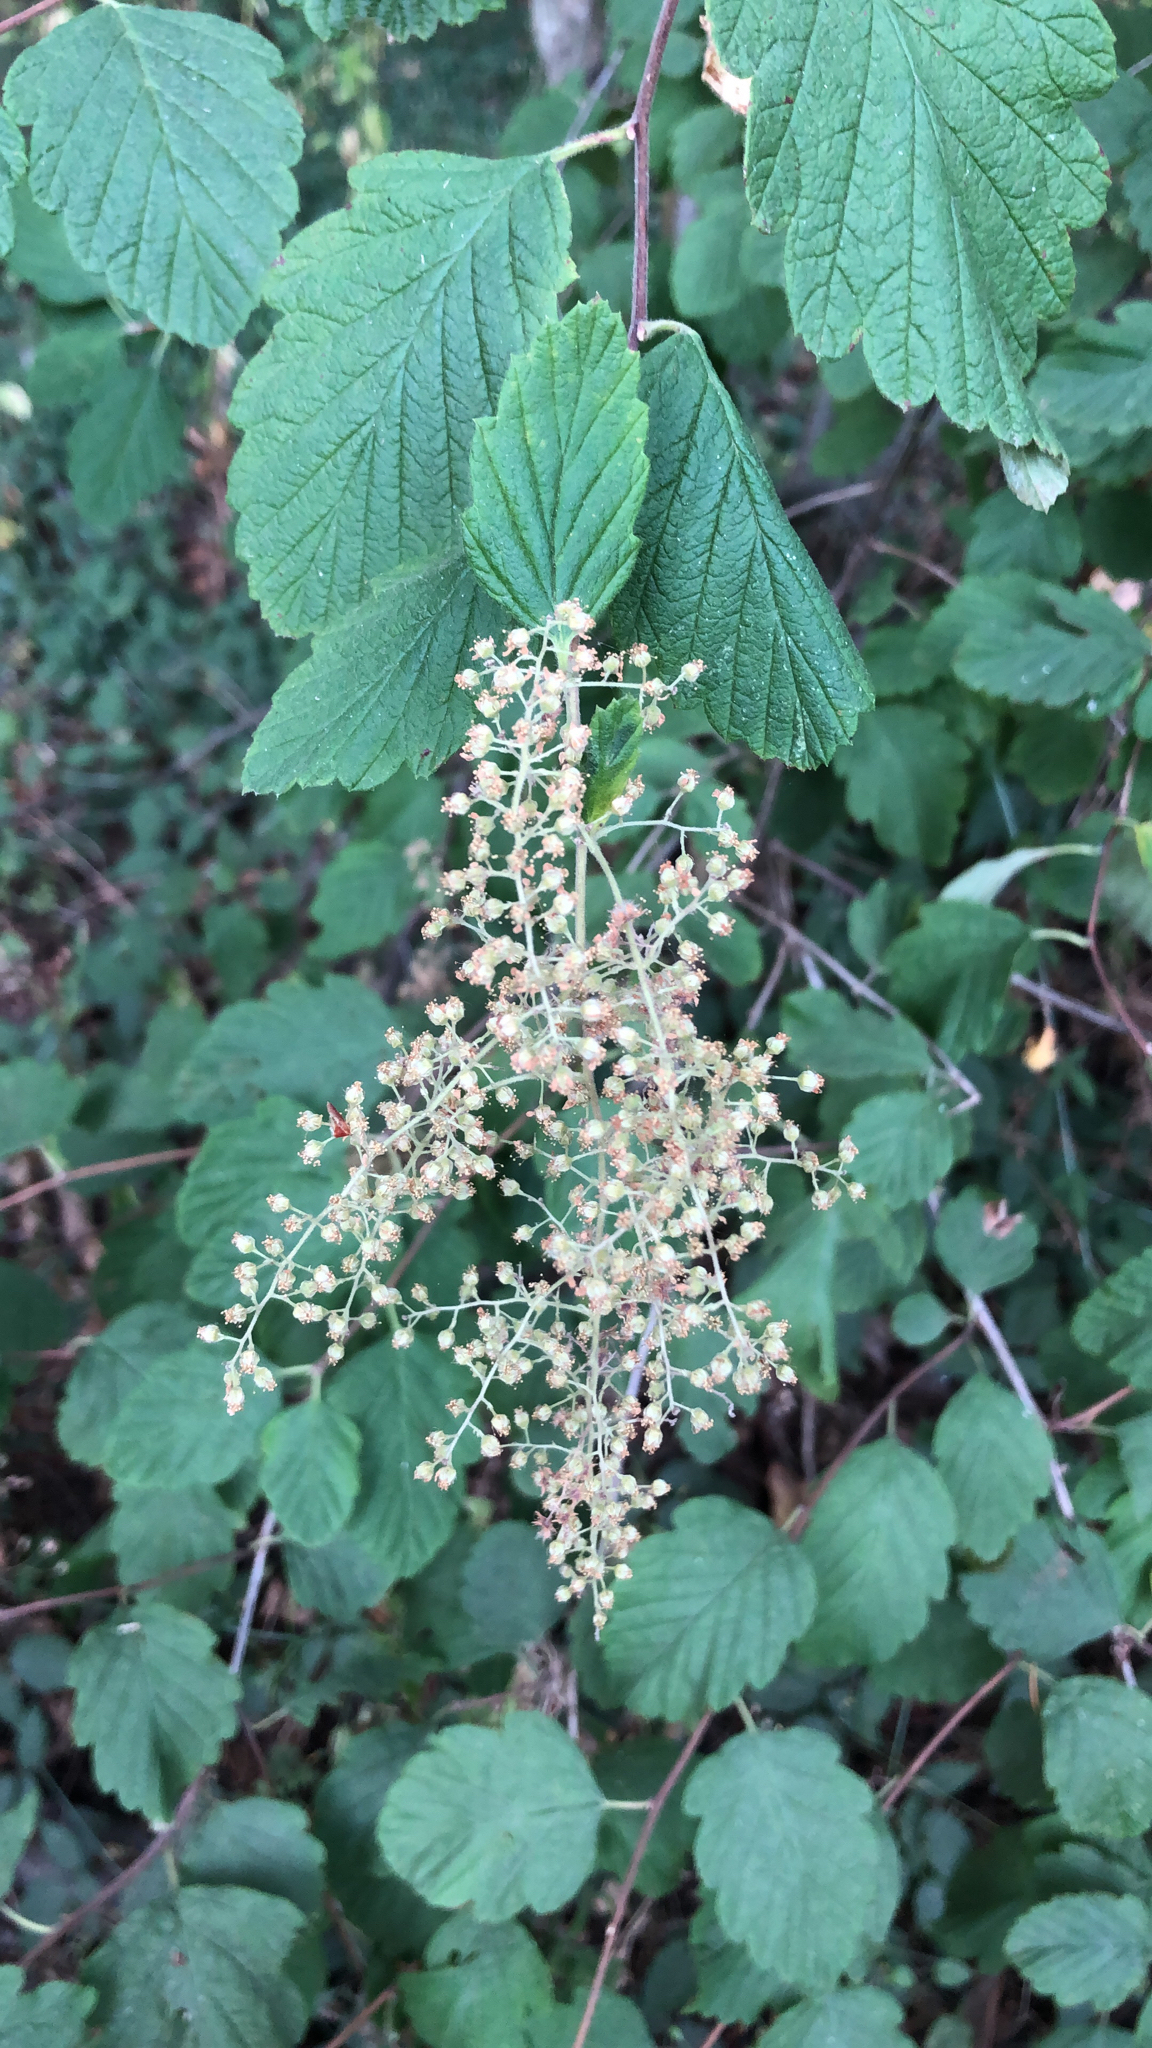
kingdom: Plantae
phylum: Tracheophyta
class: Magnoliopsida
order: Rosales
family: Rosaceae
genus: Holodiscus
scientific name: Holodiscus discolor
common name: Oceanspray
